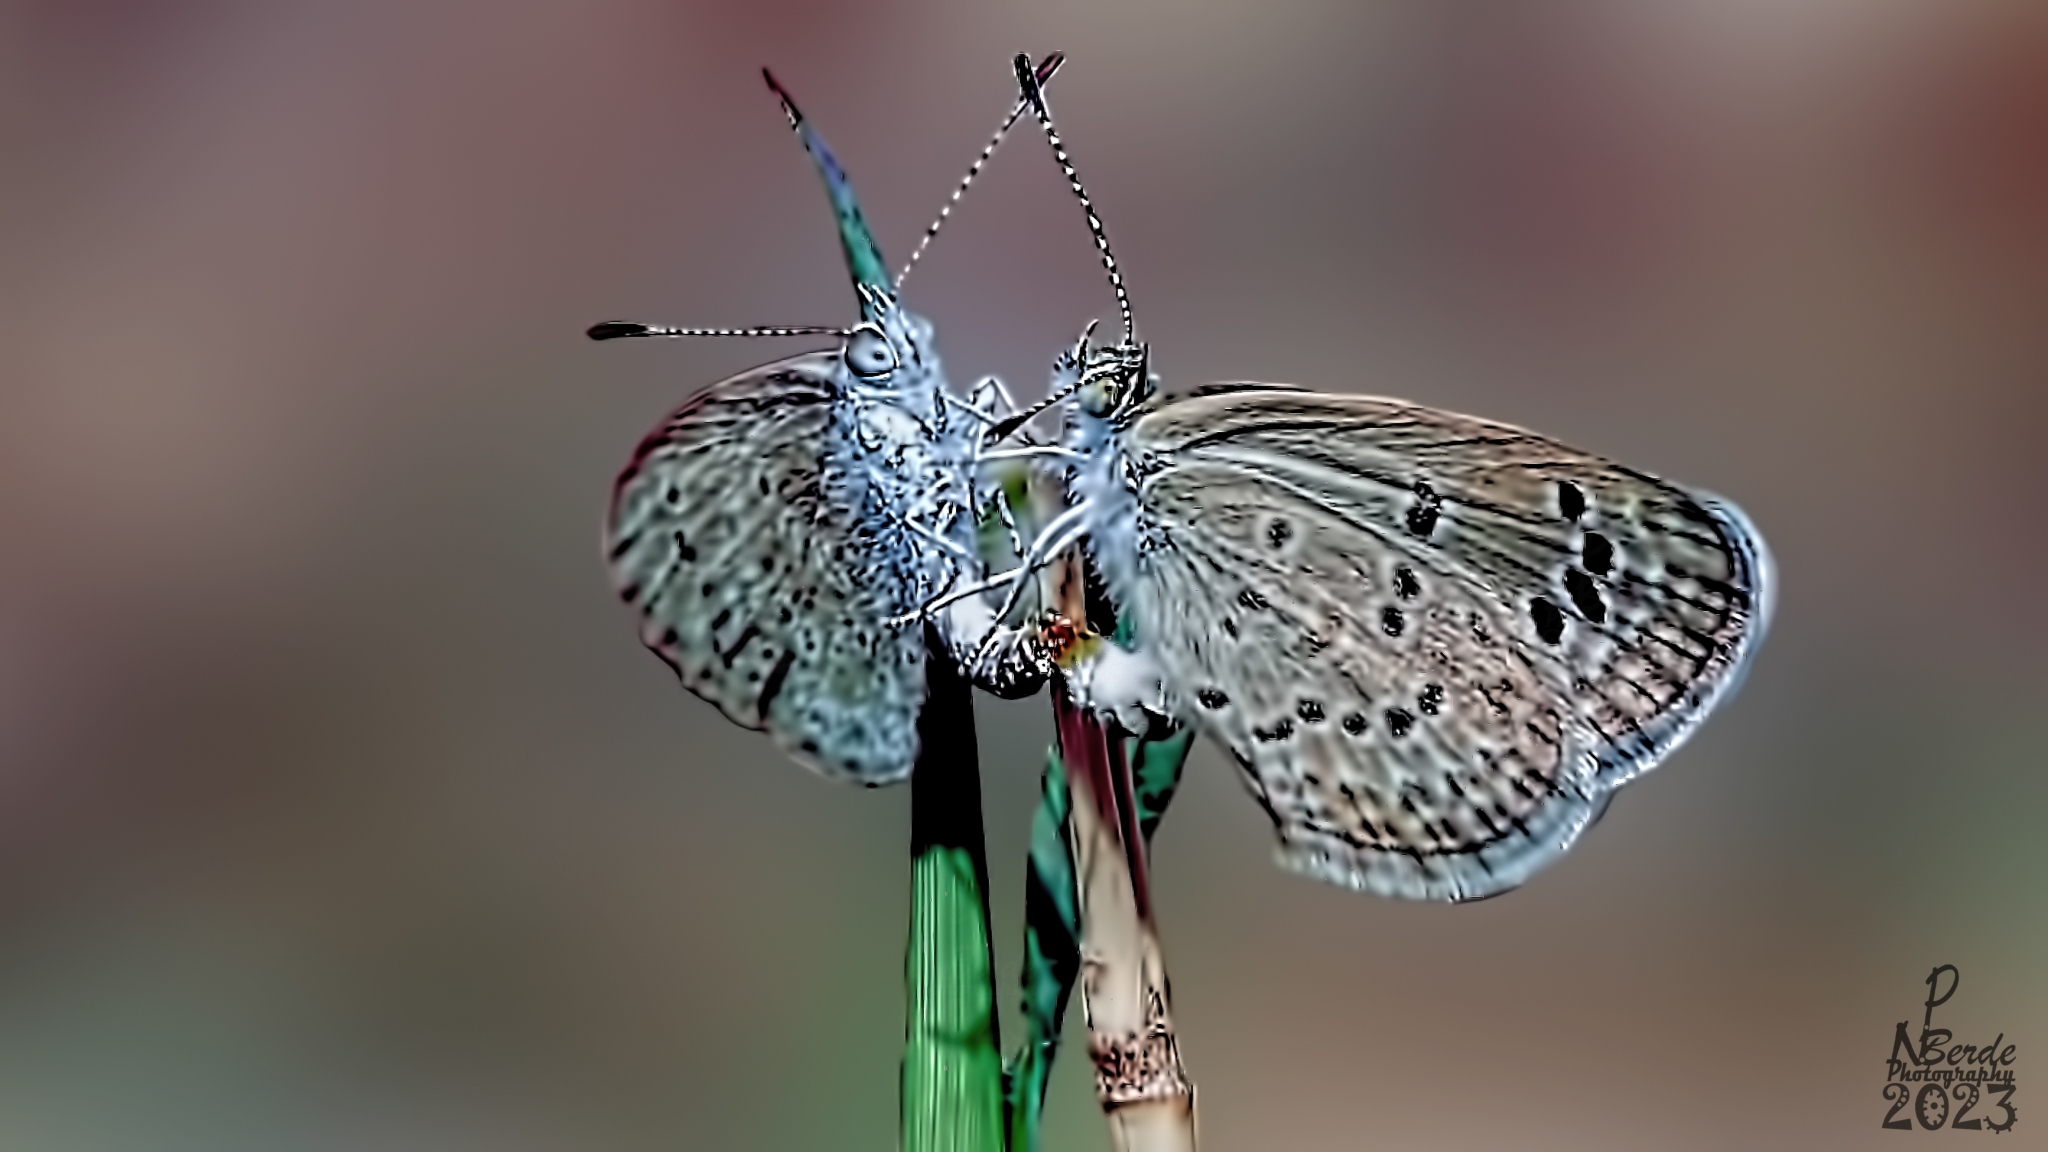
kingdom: Animalia
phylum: Arthropoda
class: Insecta
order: Lepidoptera
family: Lycaenidae
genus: Zizina
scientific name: Zizina otis
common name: Lesser grass blue
